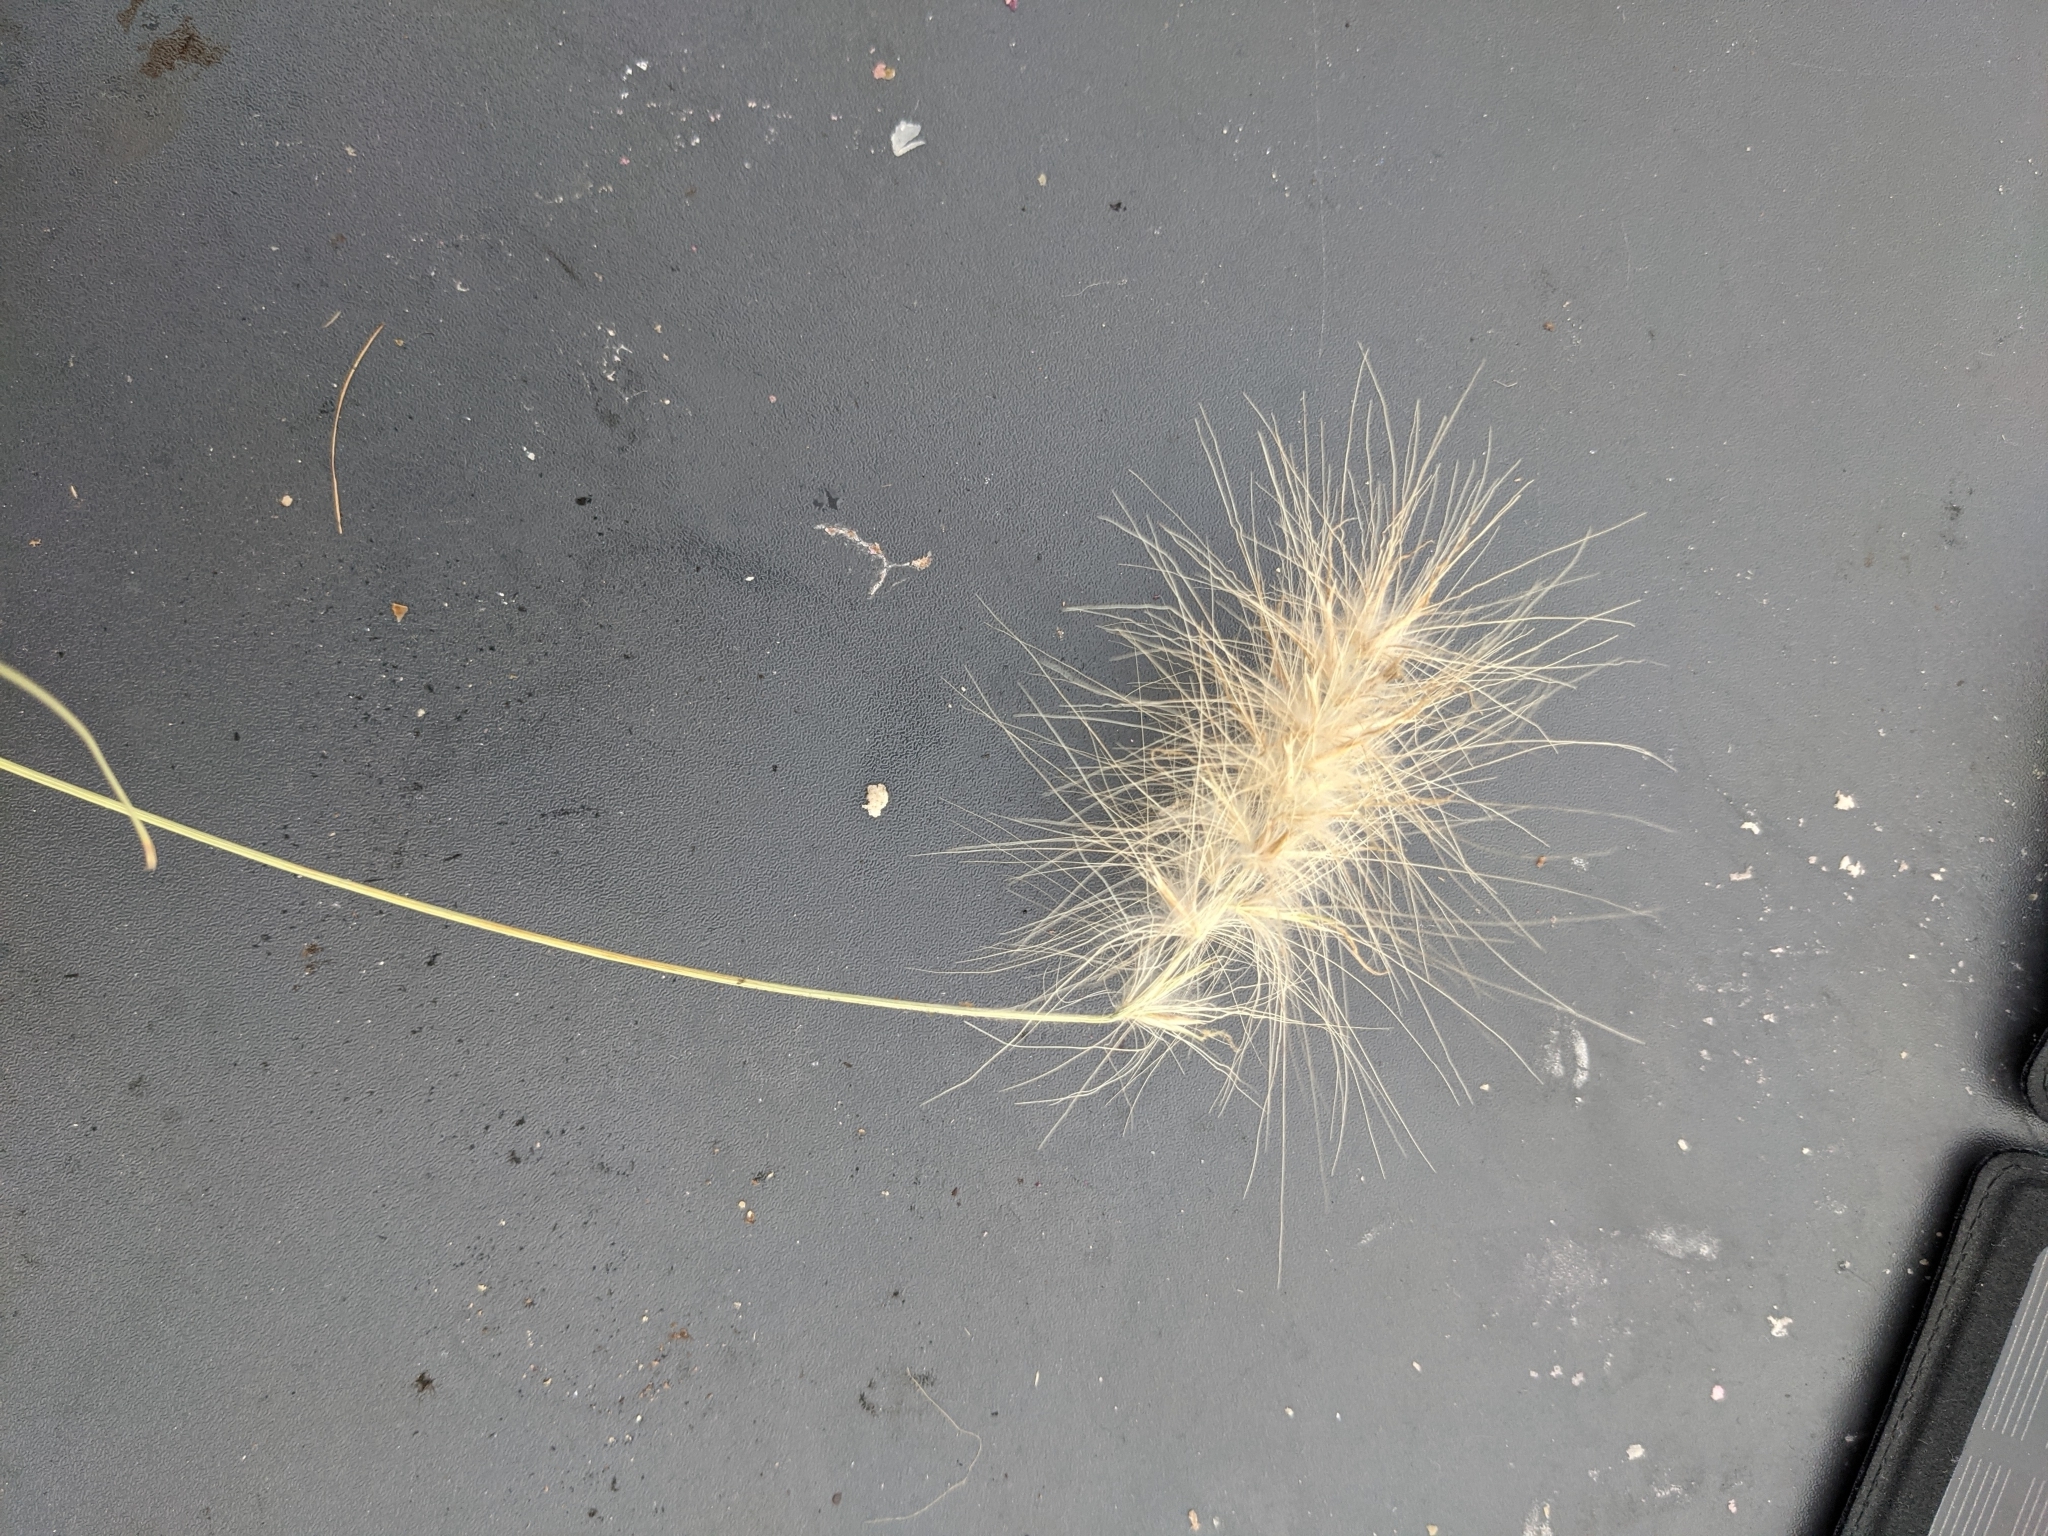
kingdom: Plantae
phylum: Tracheophyta
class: Liliopsida
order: Poales
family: Poaceae
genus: Cenchrus
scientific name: Cenchrus longisetus
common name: Feathertop
